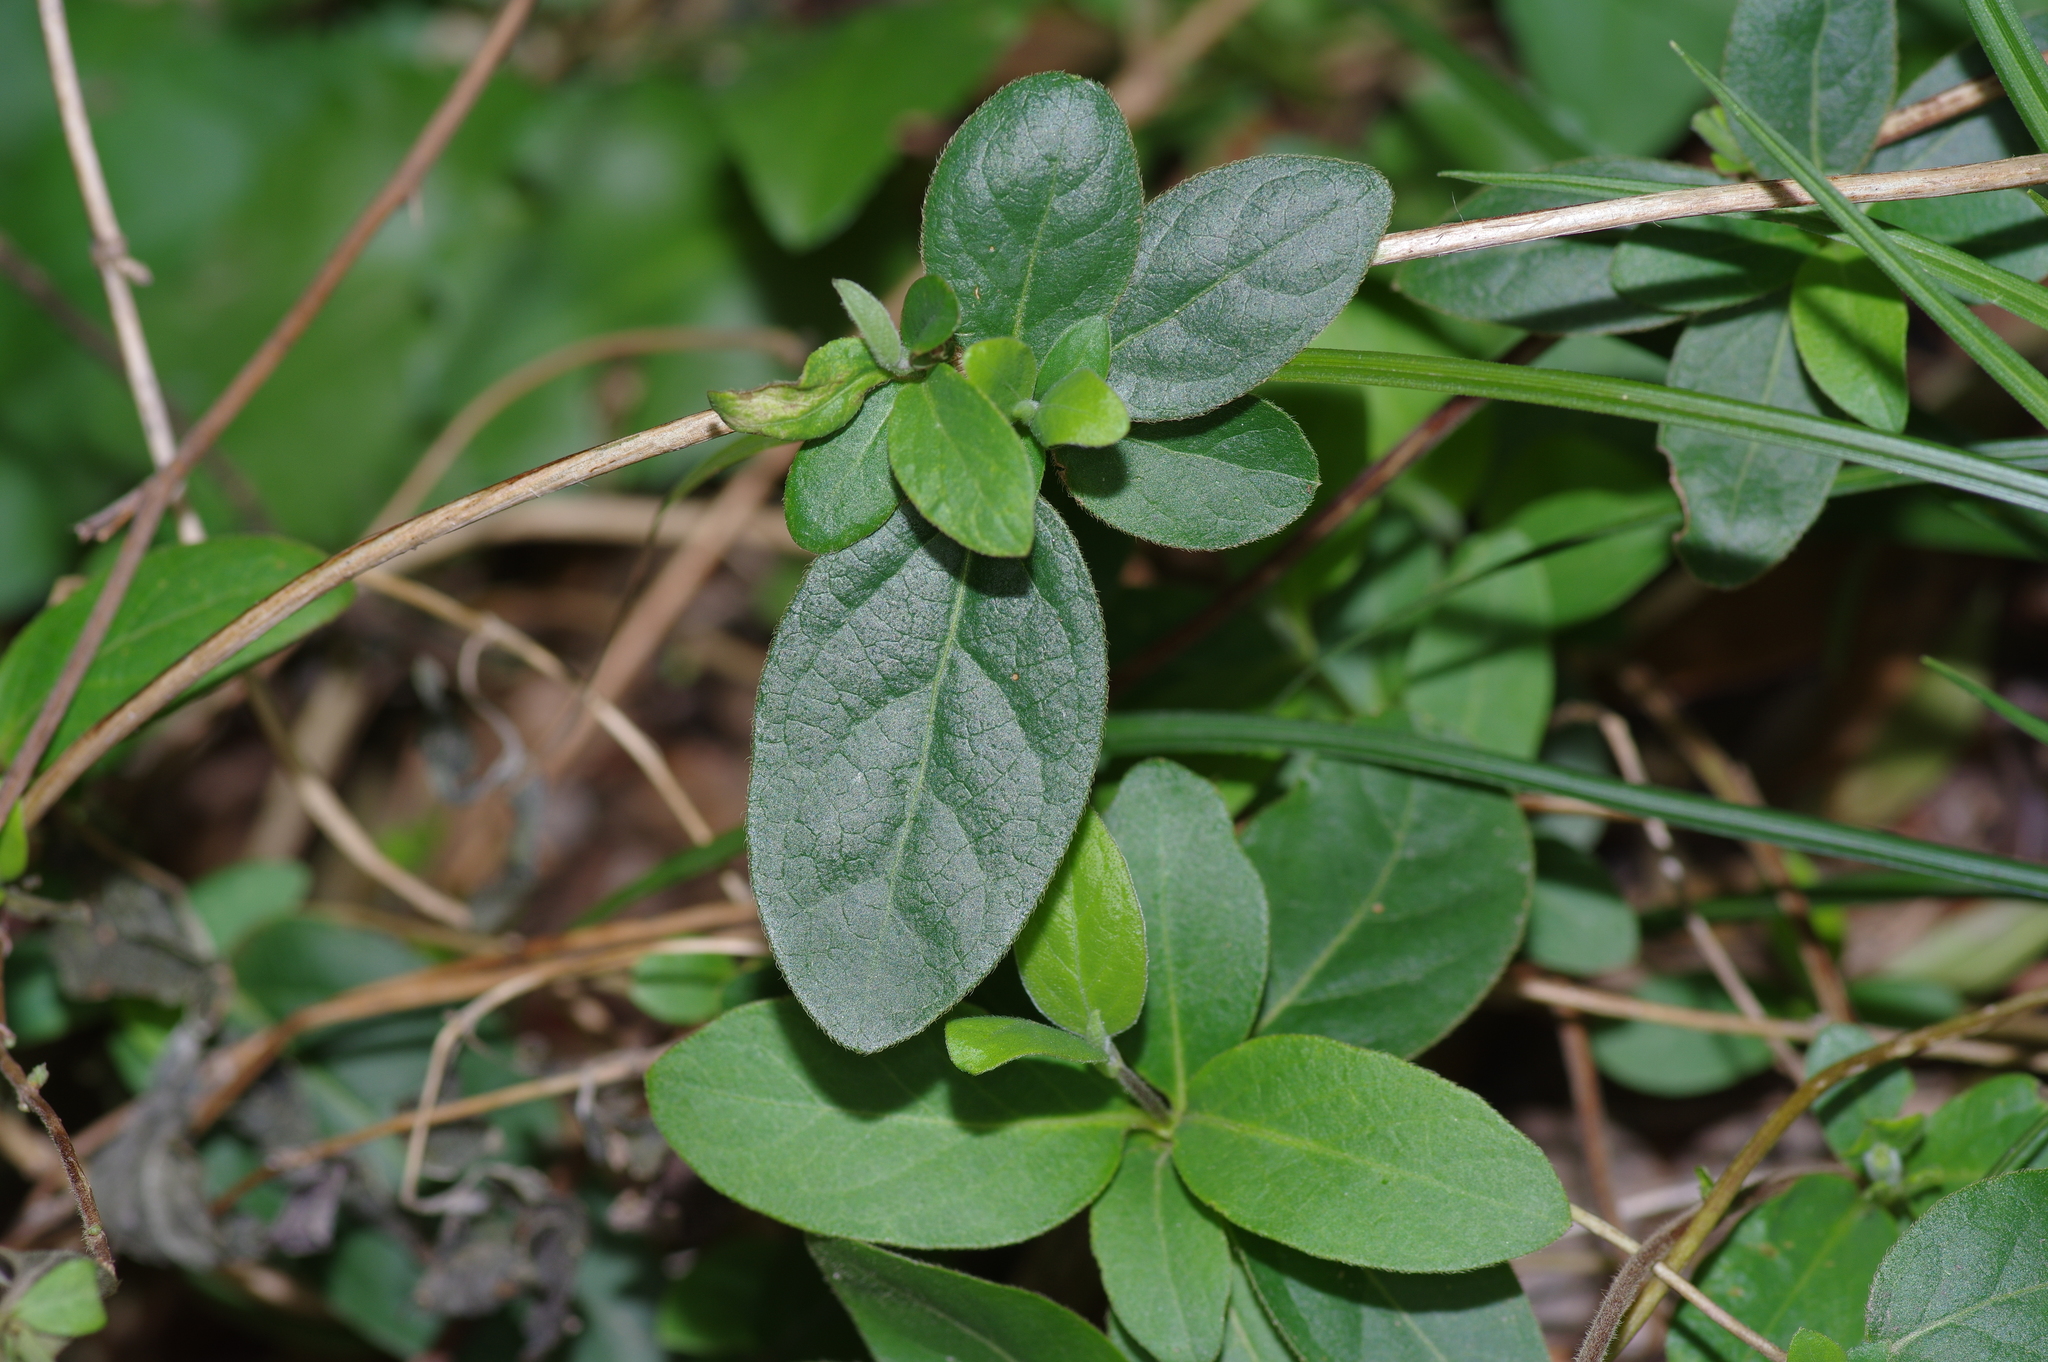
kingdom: Plantae
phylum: Tracheophyta
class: Magnoliopsida
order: Dipsacales
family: Caprifoliaceae
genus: Lonicera
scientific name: Lonicera japonica
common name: Japanese honeysuckle
